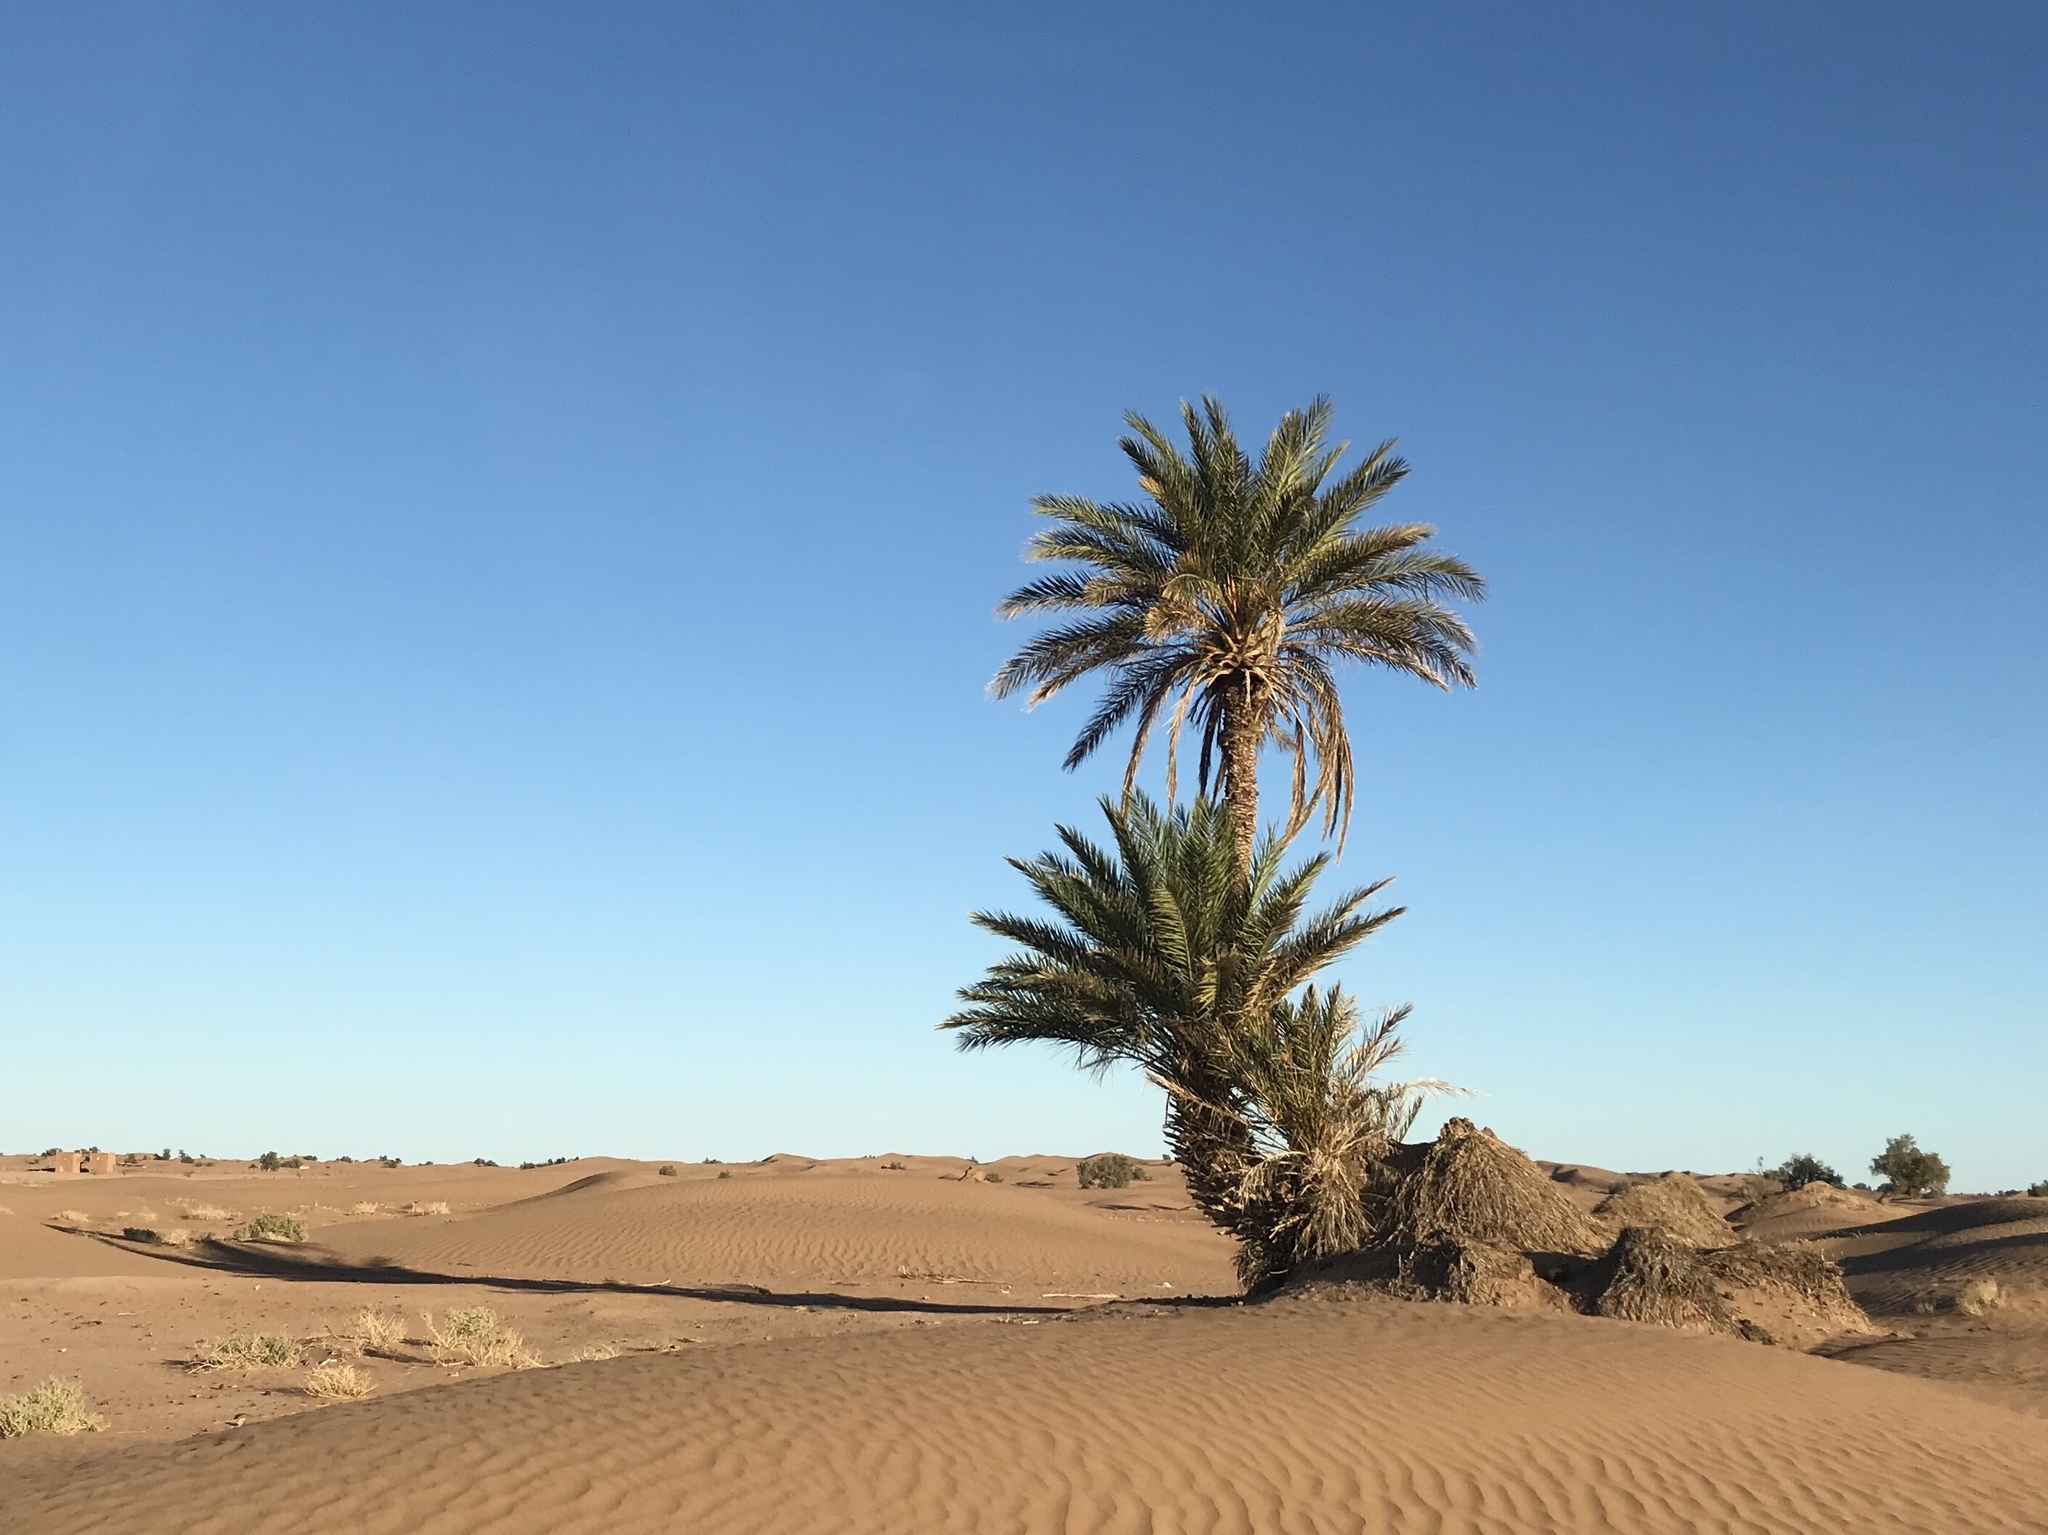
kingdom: Plantae
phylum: Tracheophyta
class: Liliopsida
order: Arecales
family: Arecaceae
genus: Phoenix
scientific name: Phoenix dactylifera
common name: Date palm
